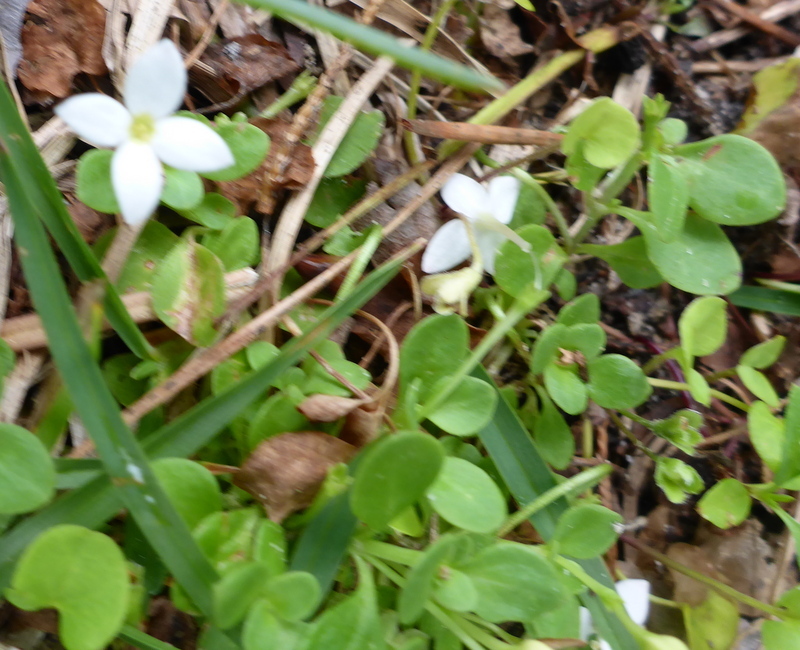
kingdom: Plantae
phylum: Tracheophyta
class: Magnoliopsida
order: Gentianales
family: Rubiaceae
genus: Houstonia
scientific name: Houstonia procumbens
